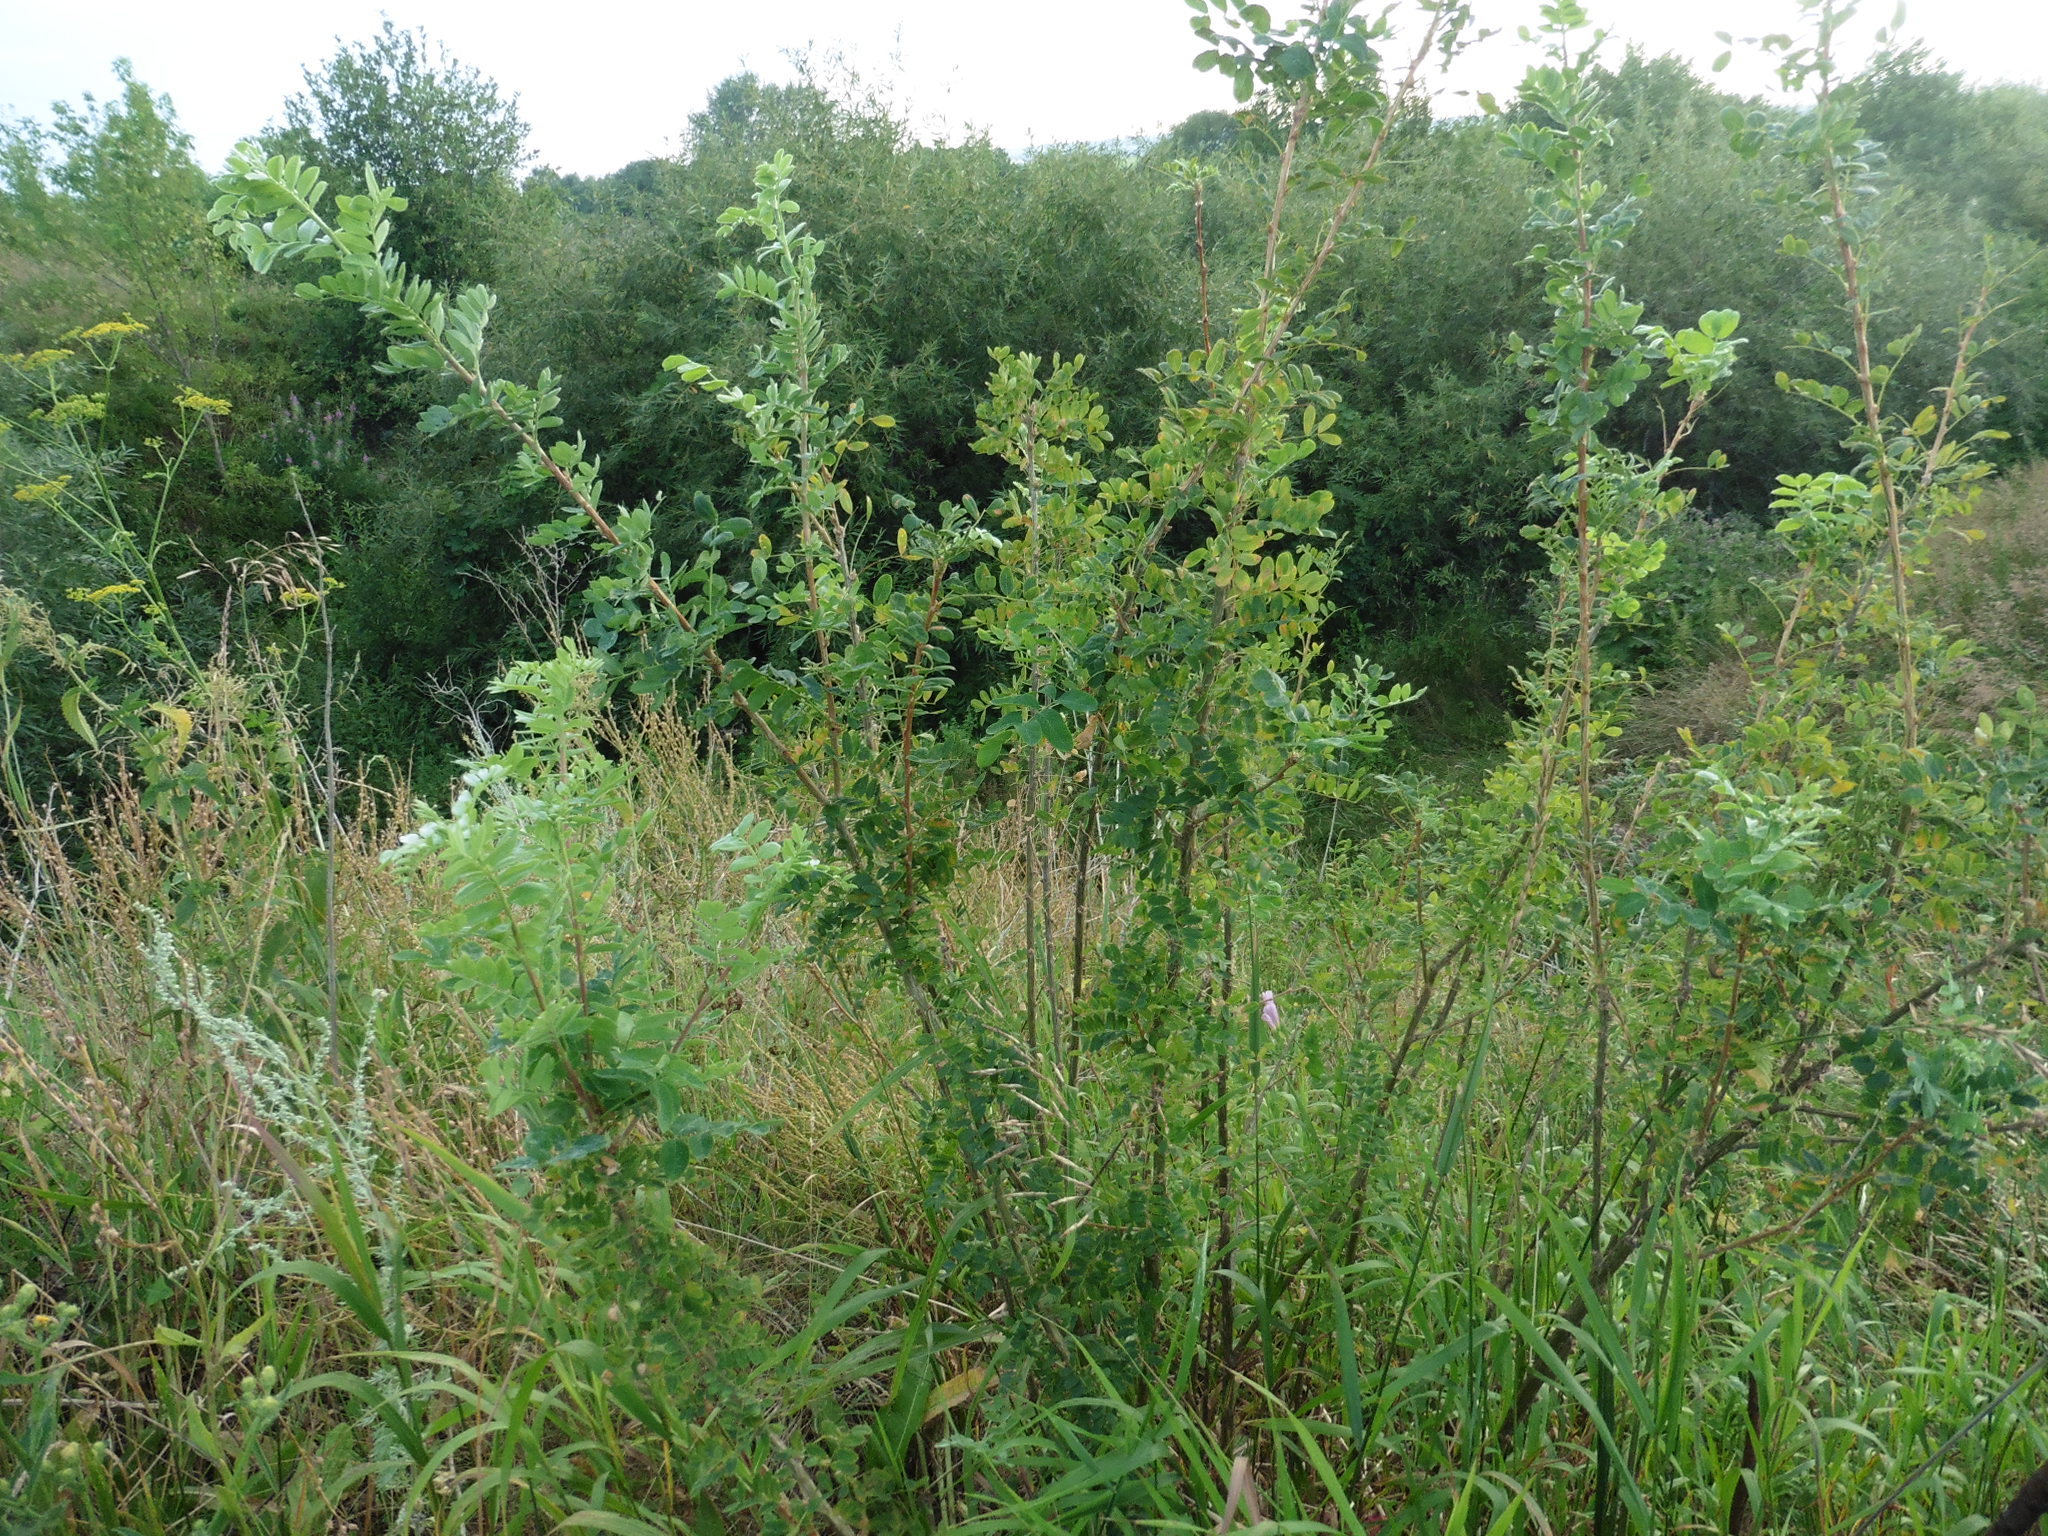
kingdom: Plantae
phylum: Tracheophyta
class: Magnoliopsida
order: Fabales
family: Fabaceae
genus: Caragana
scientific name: Caragana arborescens
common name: Siberian peashrub
